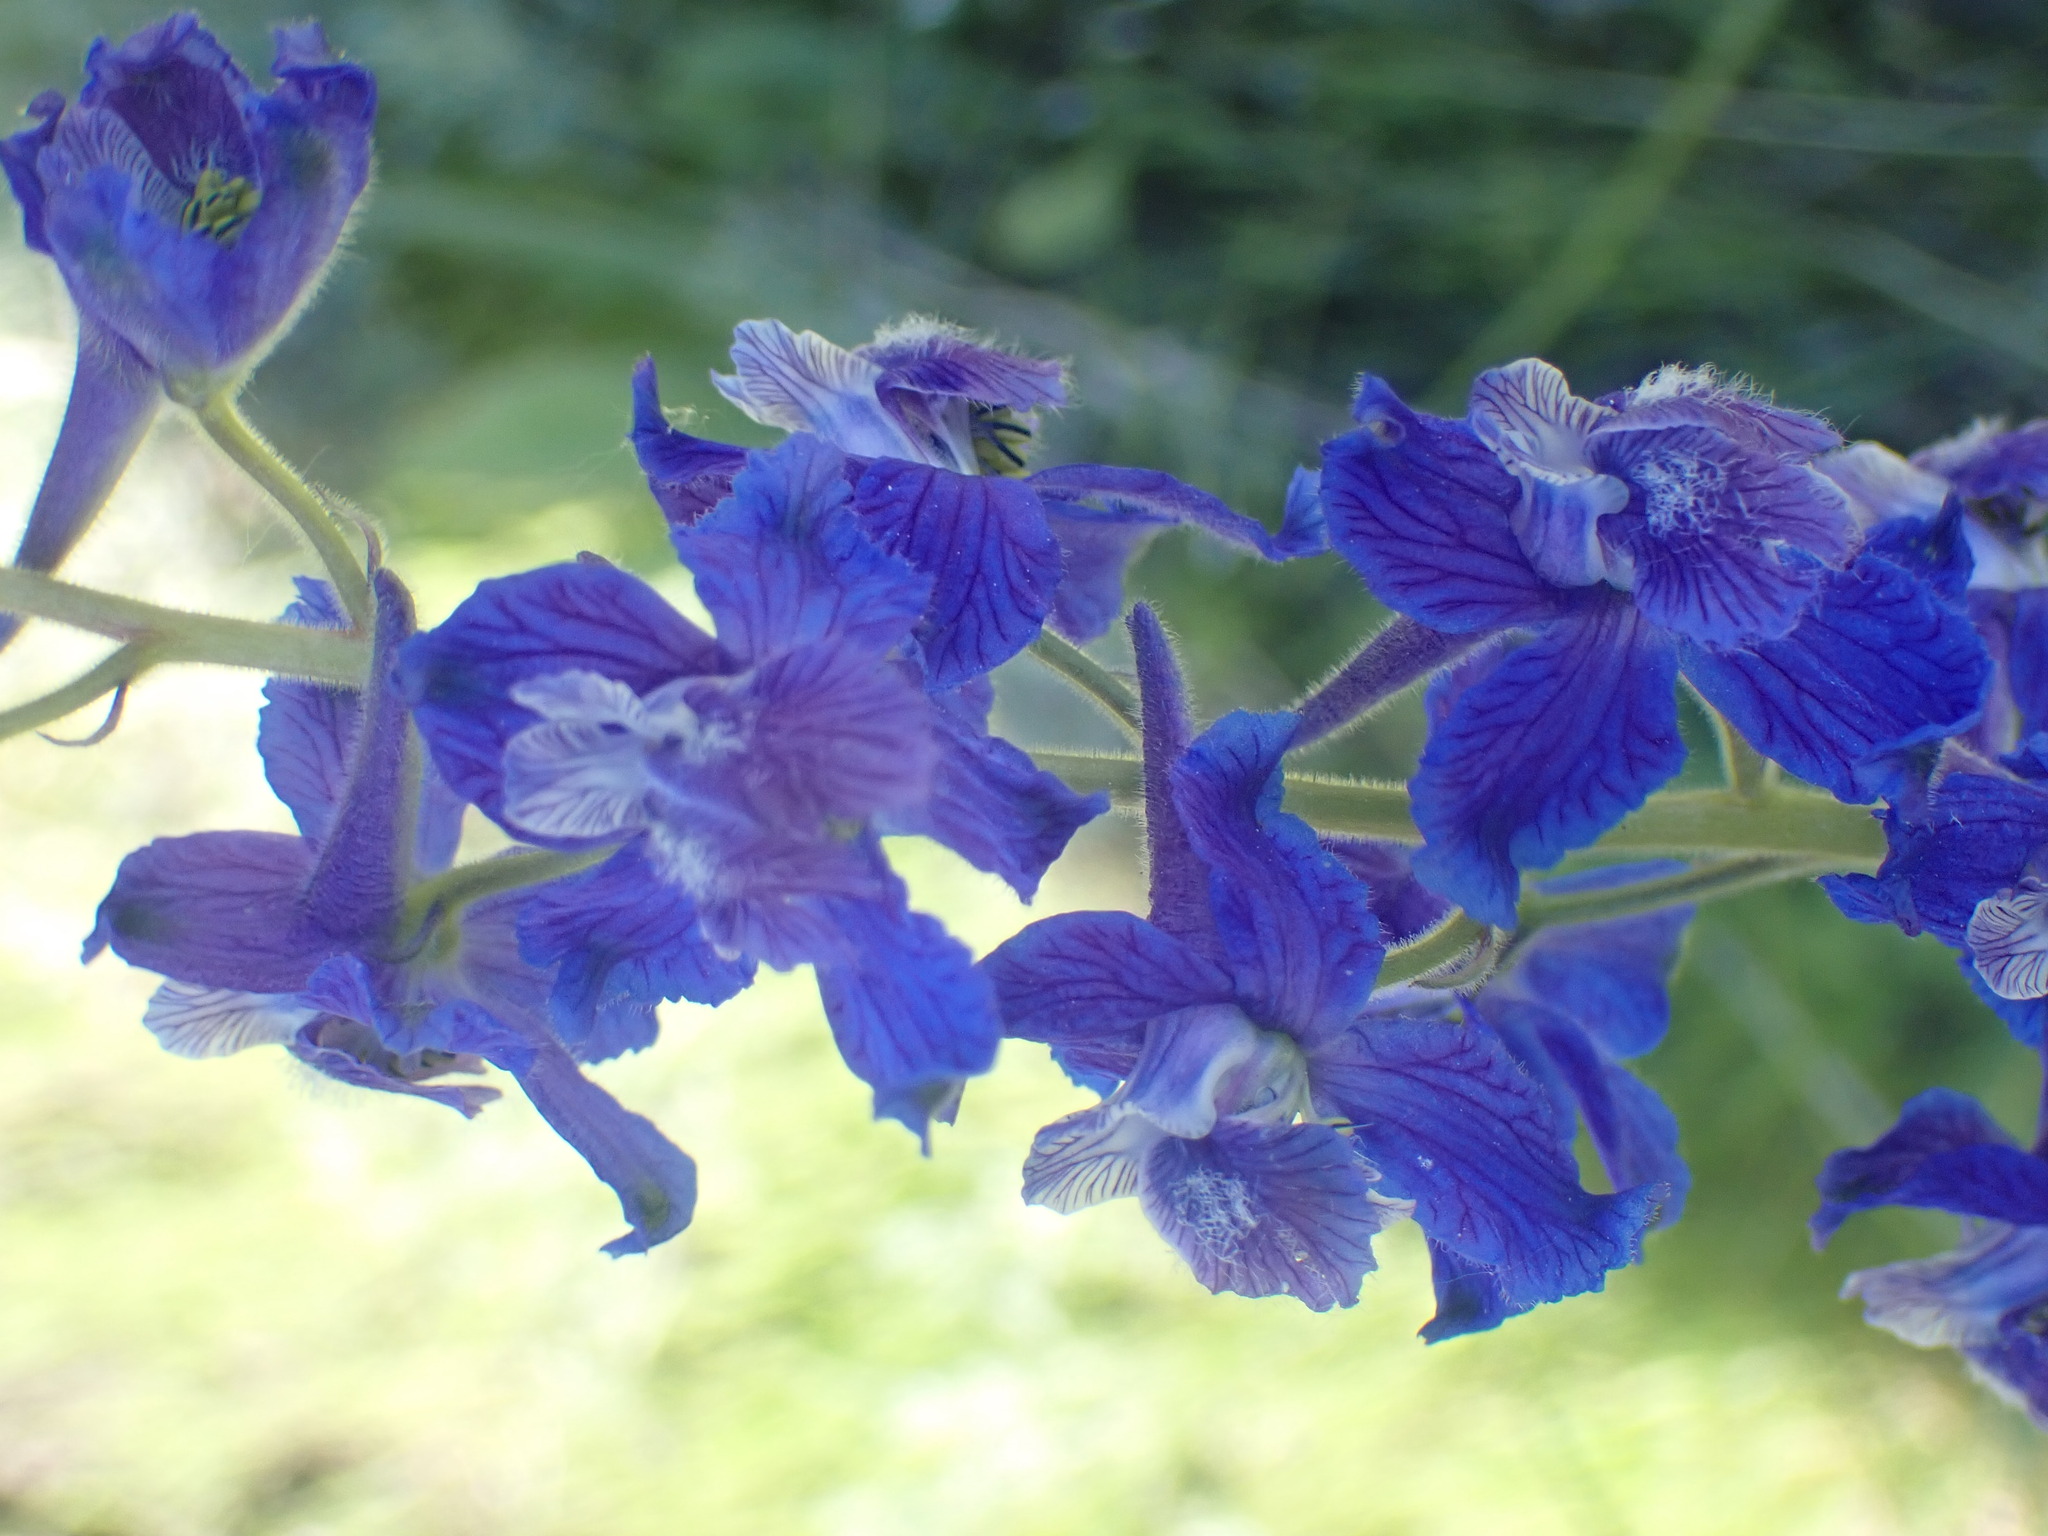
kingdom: Plantae
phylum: Tracheophyta
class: Magnoliopsida
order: Ranunculales
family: Ranunculaceae
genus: Delphinium
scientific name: Delphinium nuttallianum
